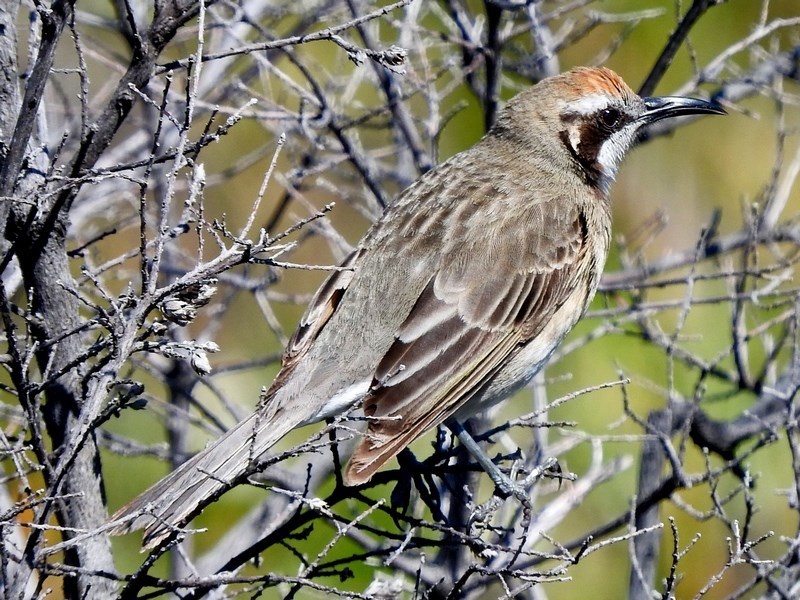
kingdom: Animalia
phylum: Chordata
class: Aves
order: Passeriformes
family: Meliphagidae
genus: Gliciphila
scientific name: Gliciphila melanops
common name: Tawny-crowned honeyeater
